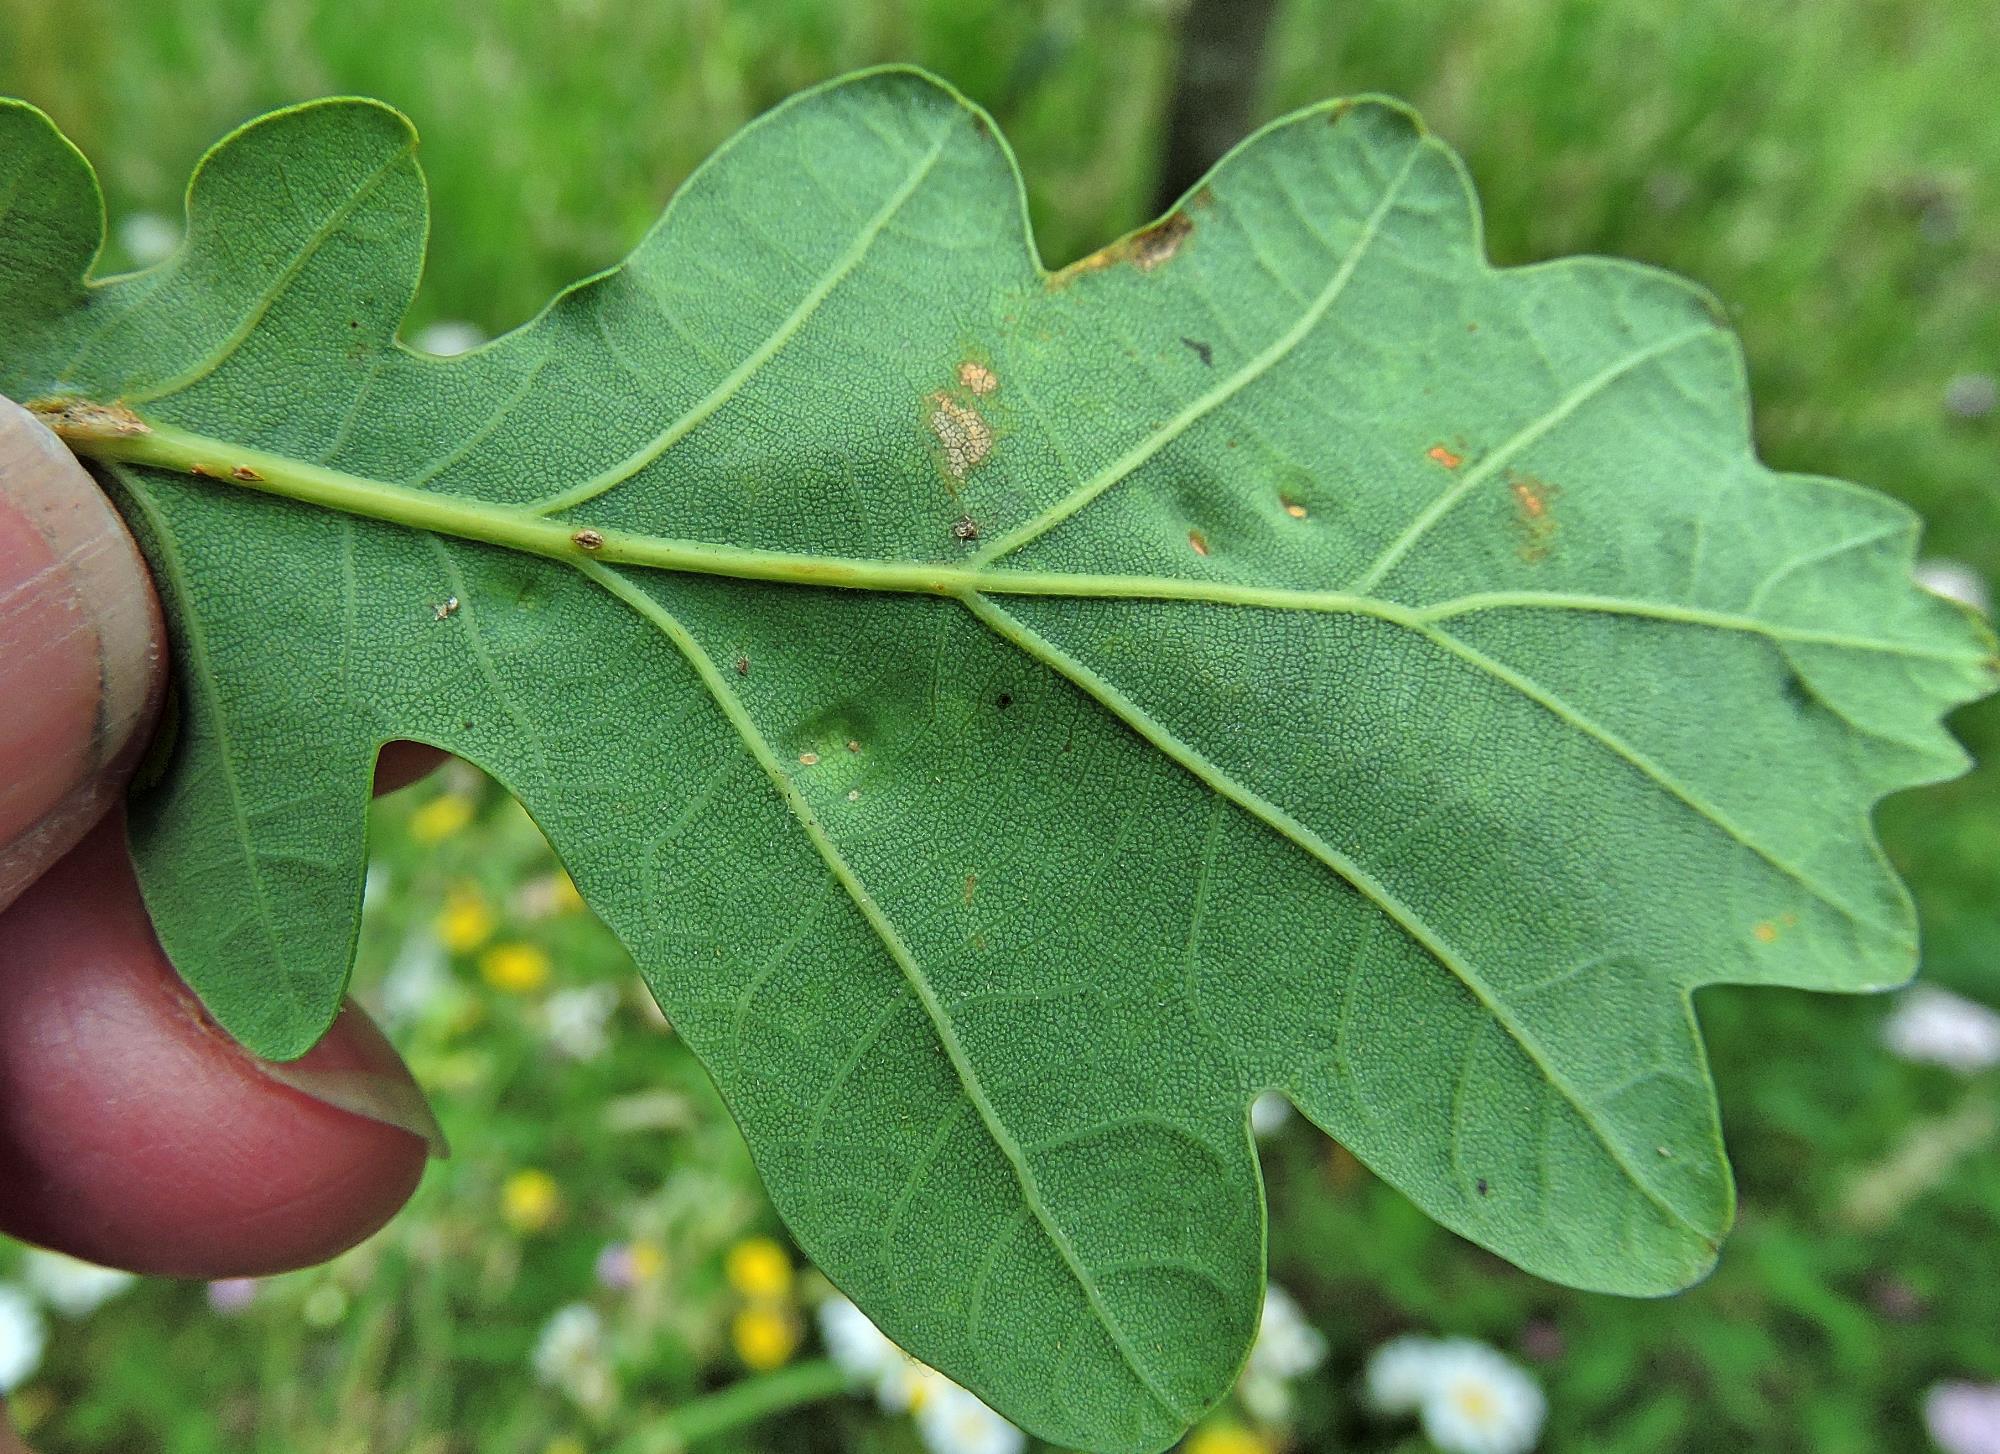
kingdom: Animalia
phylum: Arthropoda
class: Insecta
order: Hemiptera
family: Triozidae
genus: Trioza
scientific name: Trioza remota
